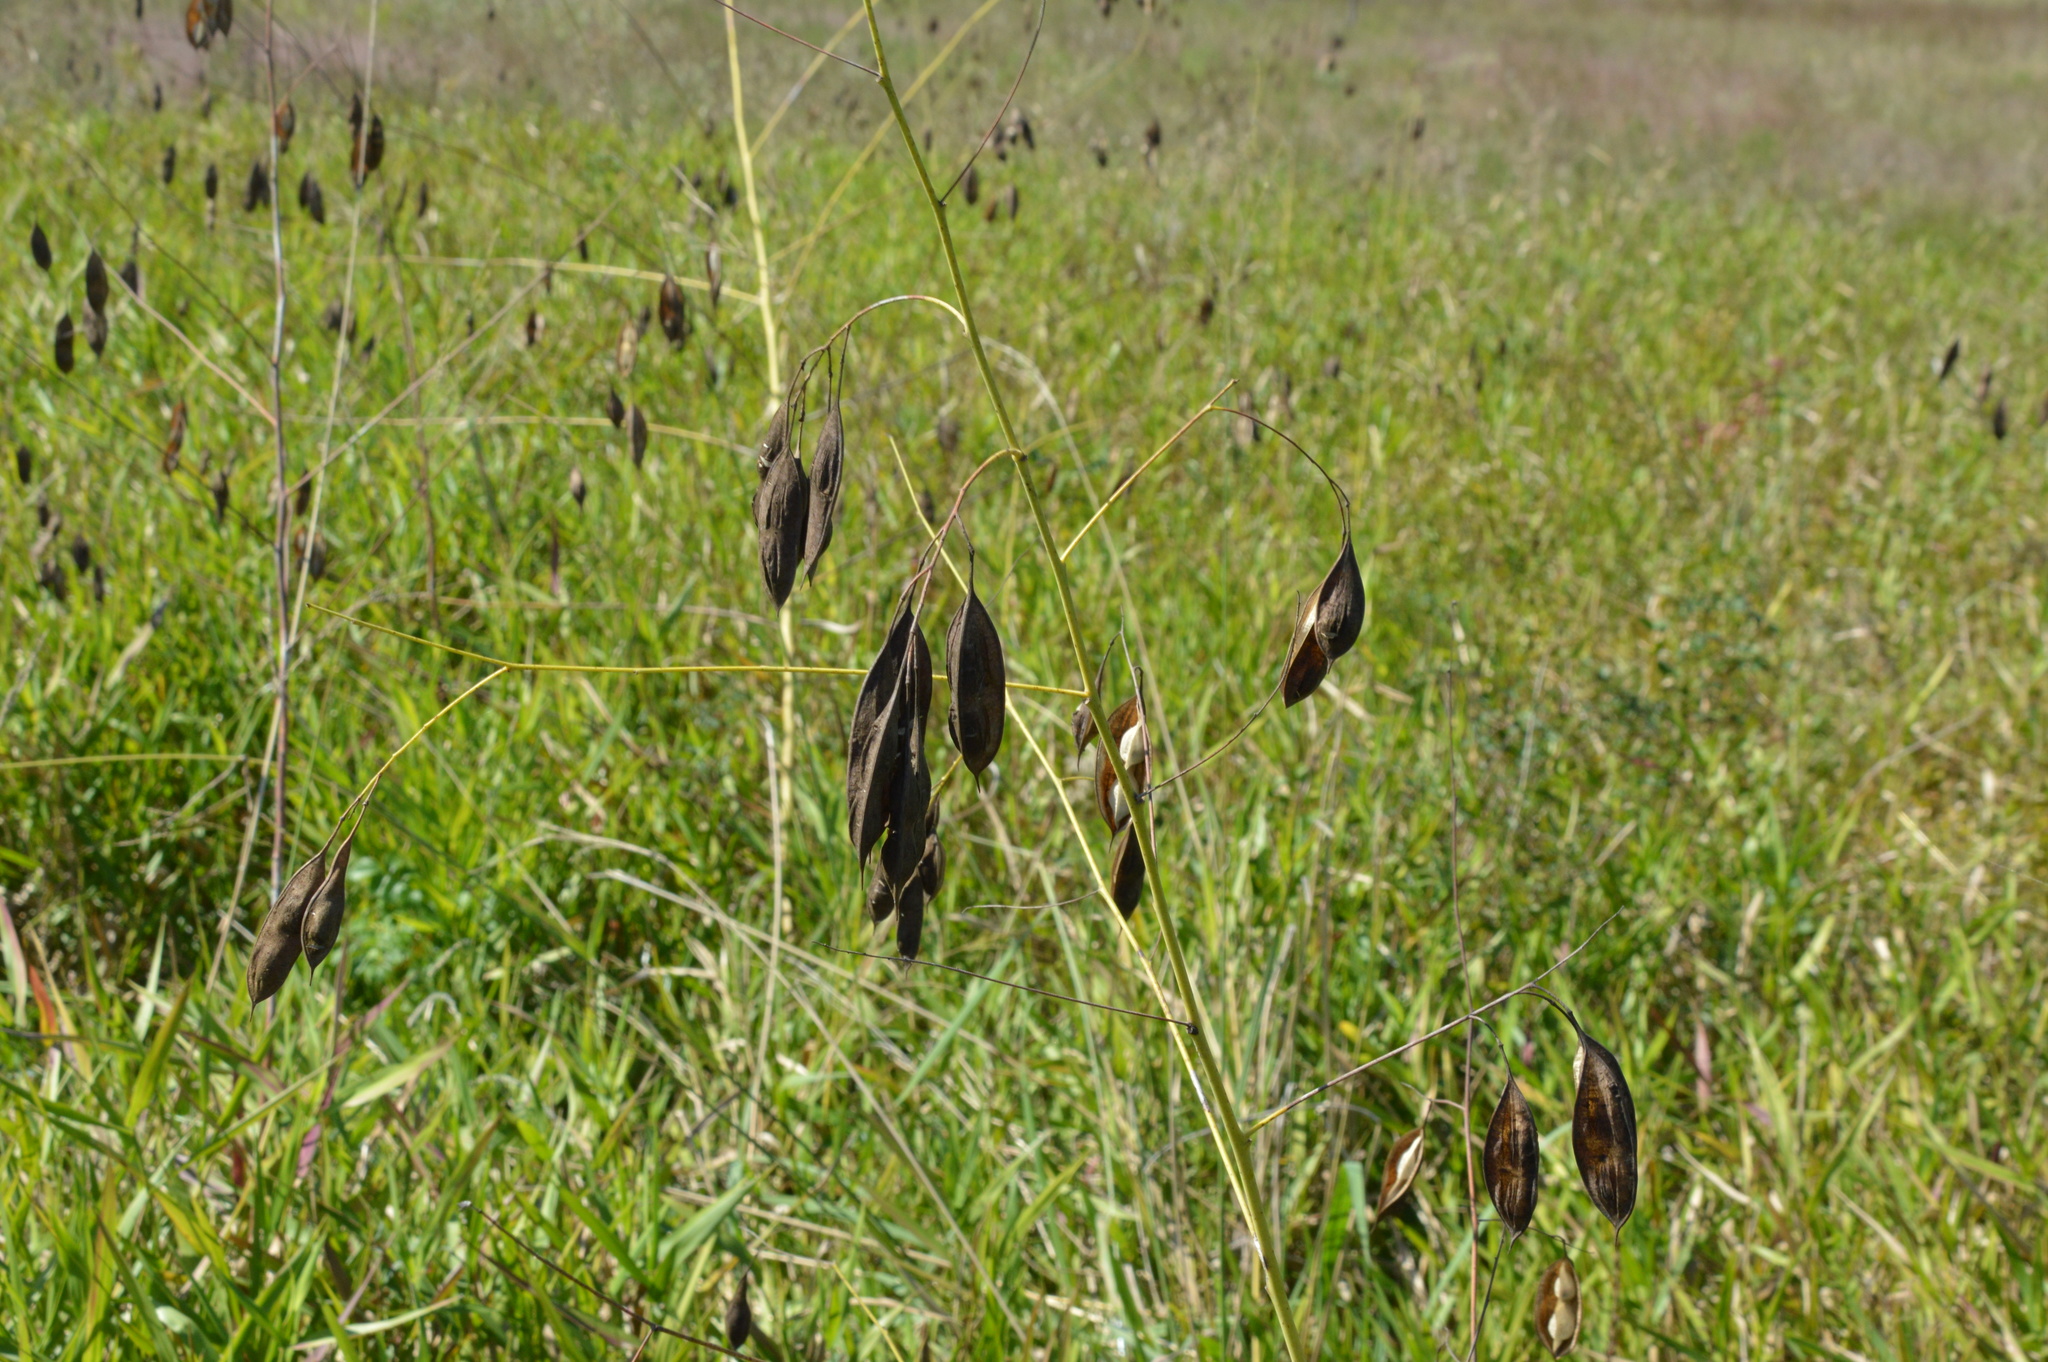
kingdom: Plantae
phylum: Tracheophyta
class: Magnoliopsida
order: Fabales
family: Fabaceae
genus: Sesbania
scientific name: Sesbania vesicaria
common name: Bagpod
